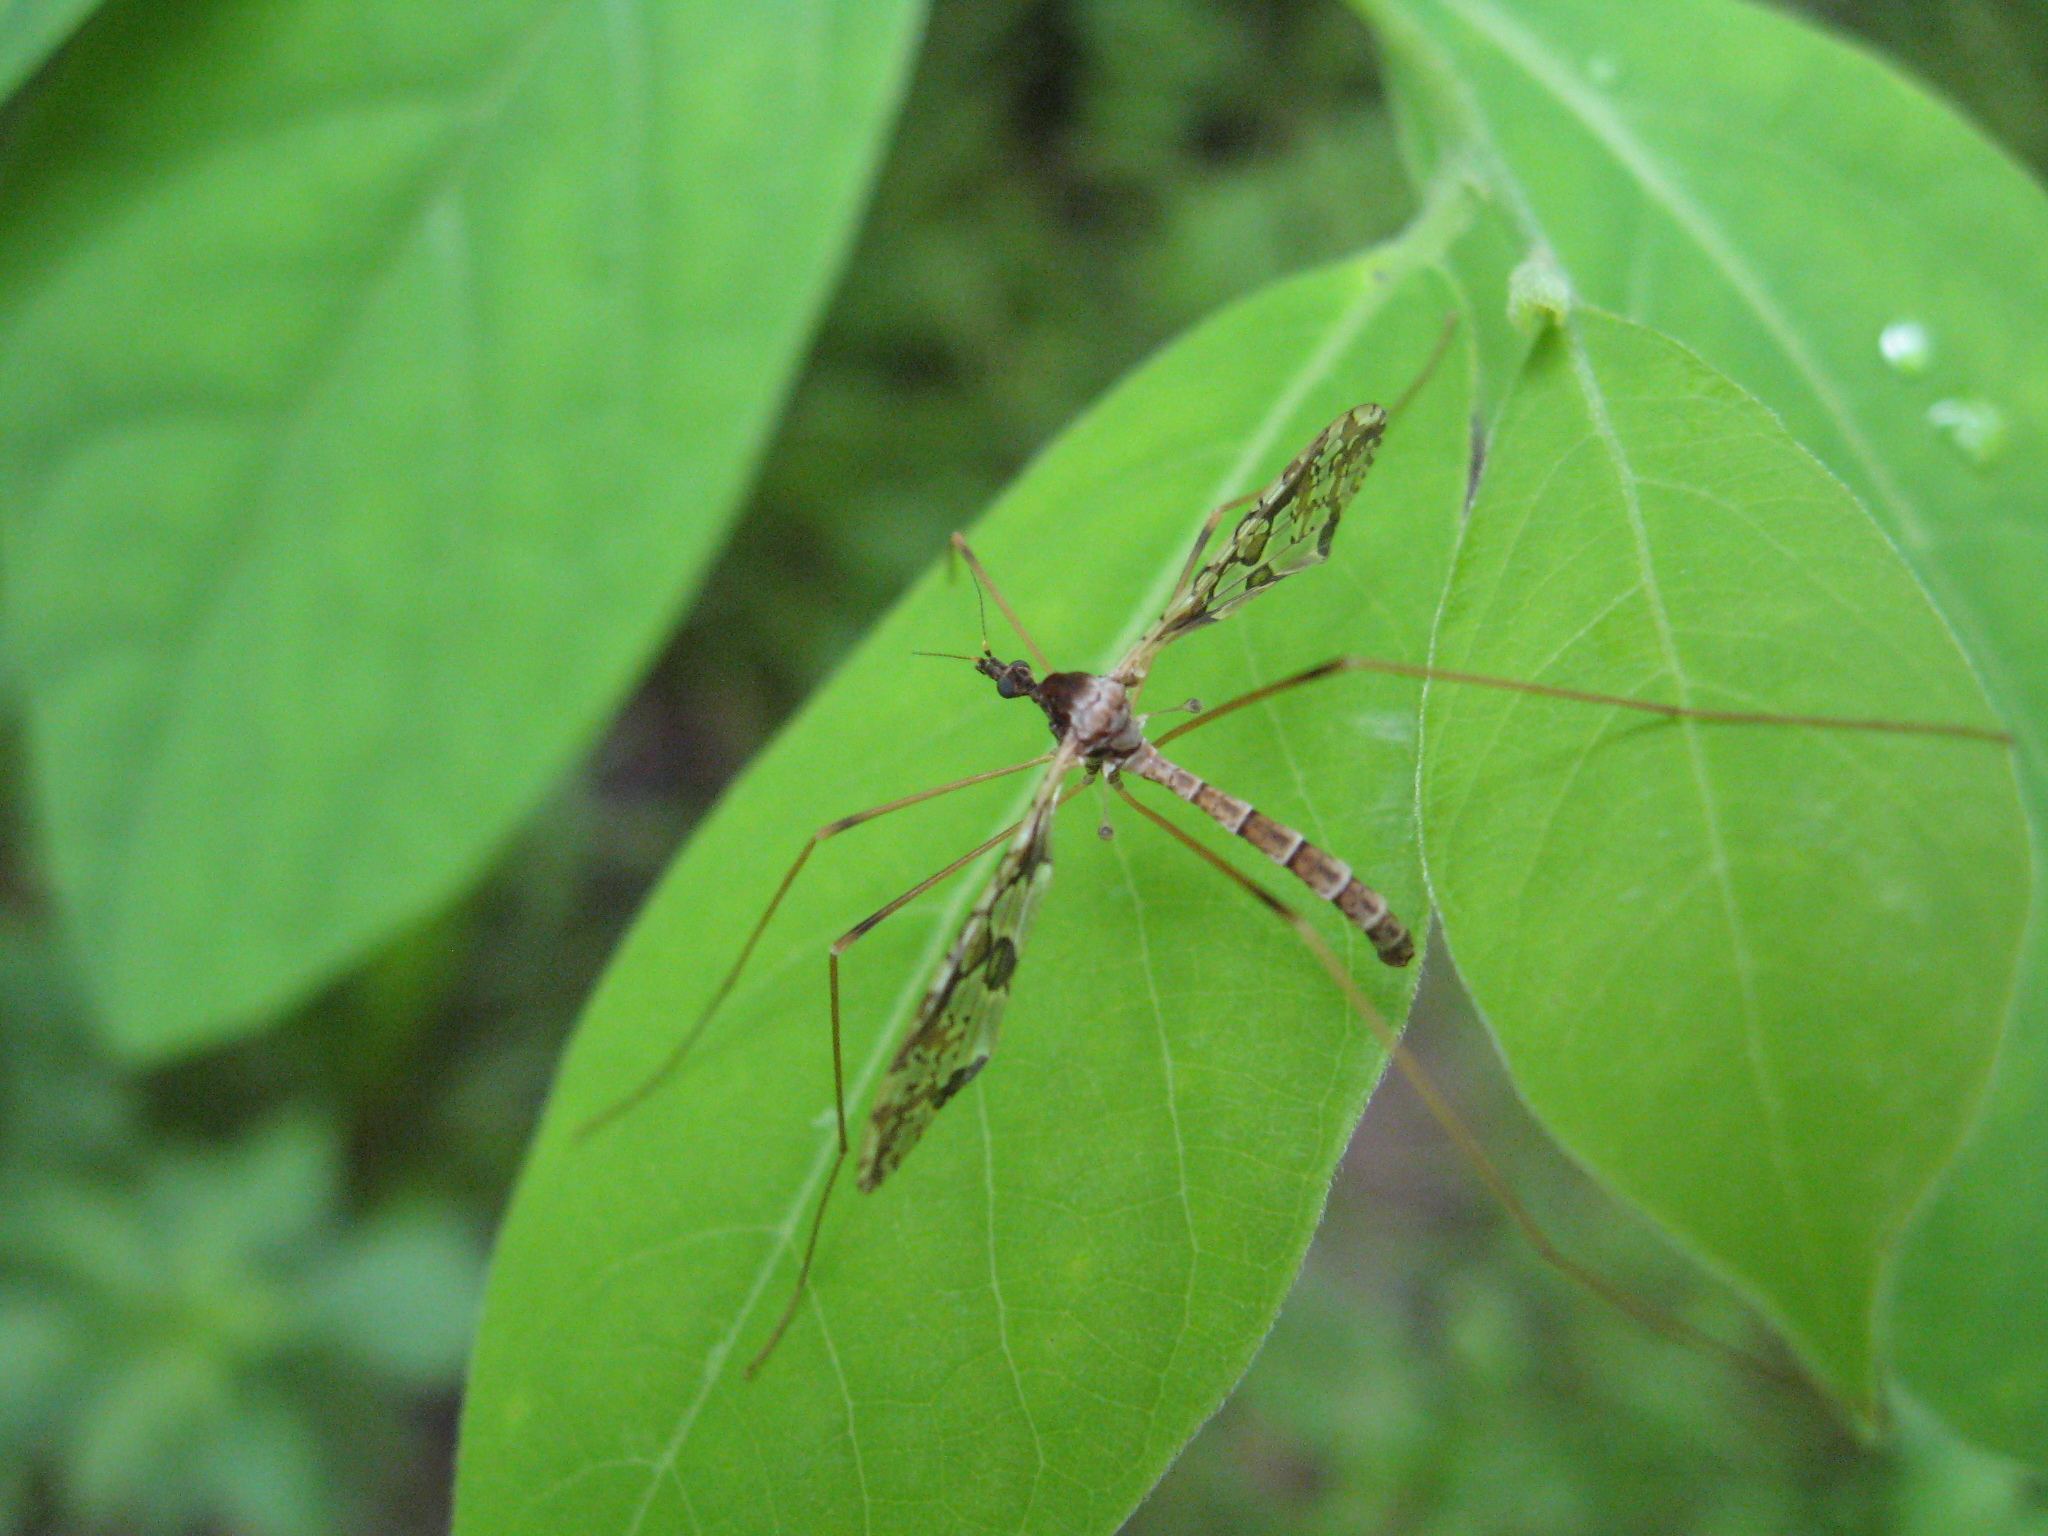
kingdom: Animalia
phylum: Arthropoda
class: Insecta
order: Diptera
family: Limoniidae
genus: Epiphragma
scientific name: Epiphragma solatrix
